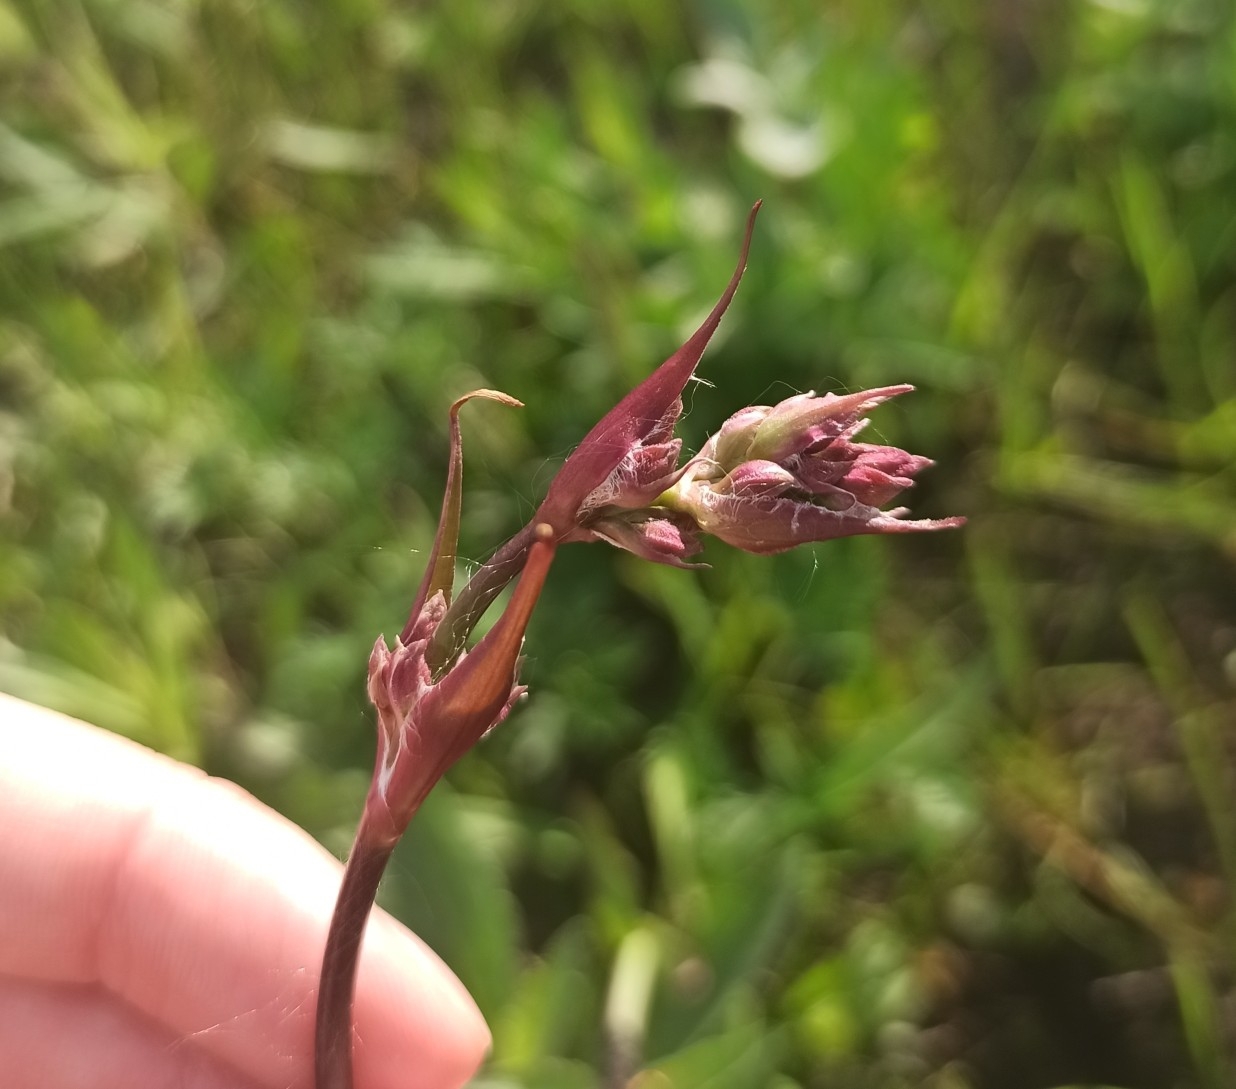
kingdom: Plantae
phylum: Tracheophyta
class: Magnoliopsida
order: Caryophyllales
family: Caryophyllaceae
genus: Viscaria
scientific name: Viscaria vulgaris
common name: Clammy campion
